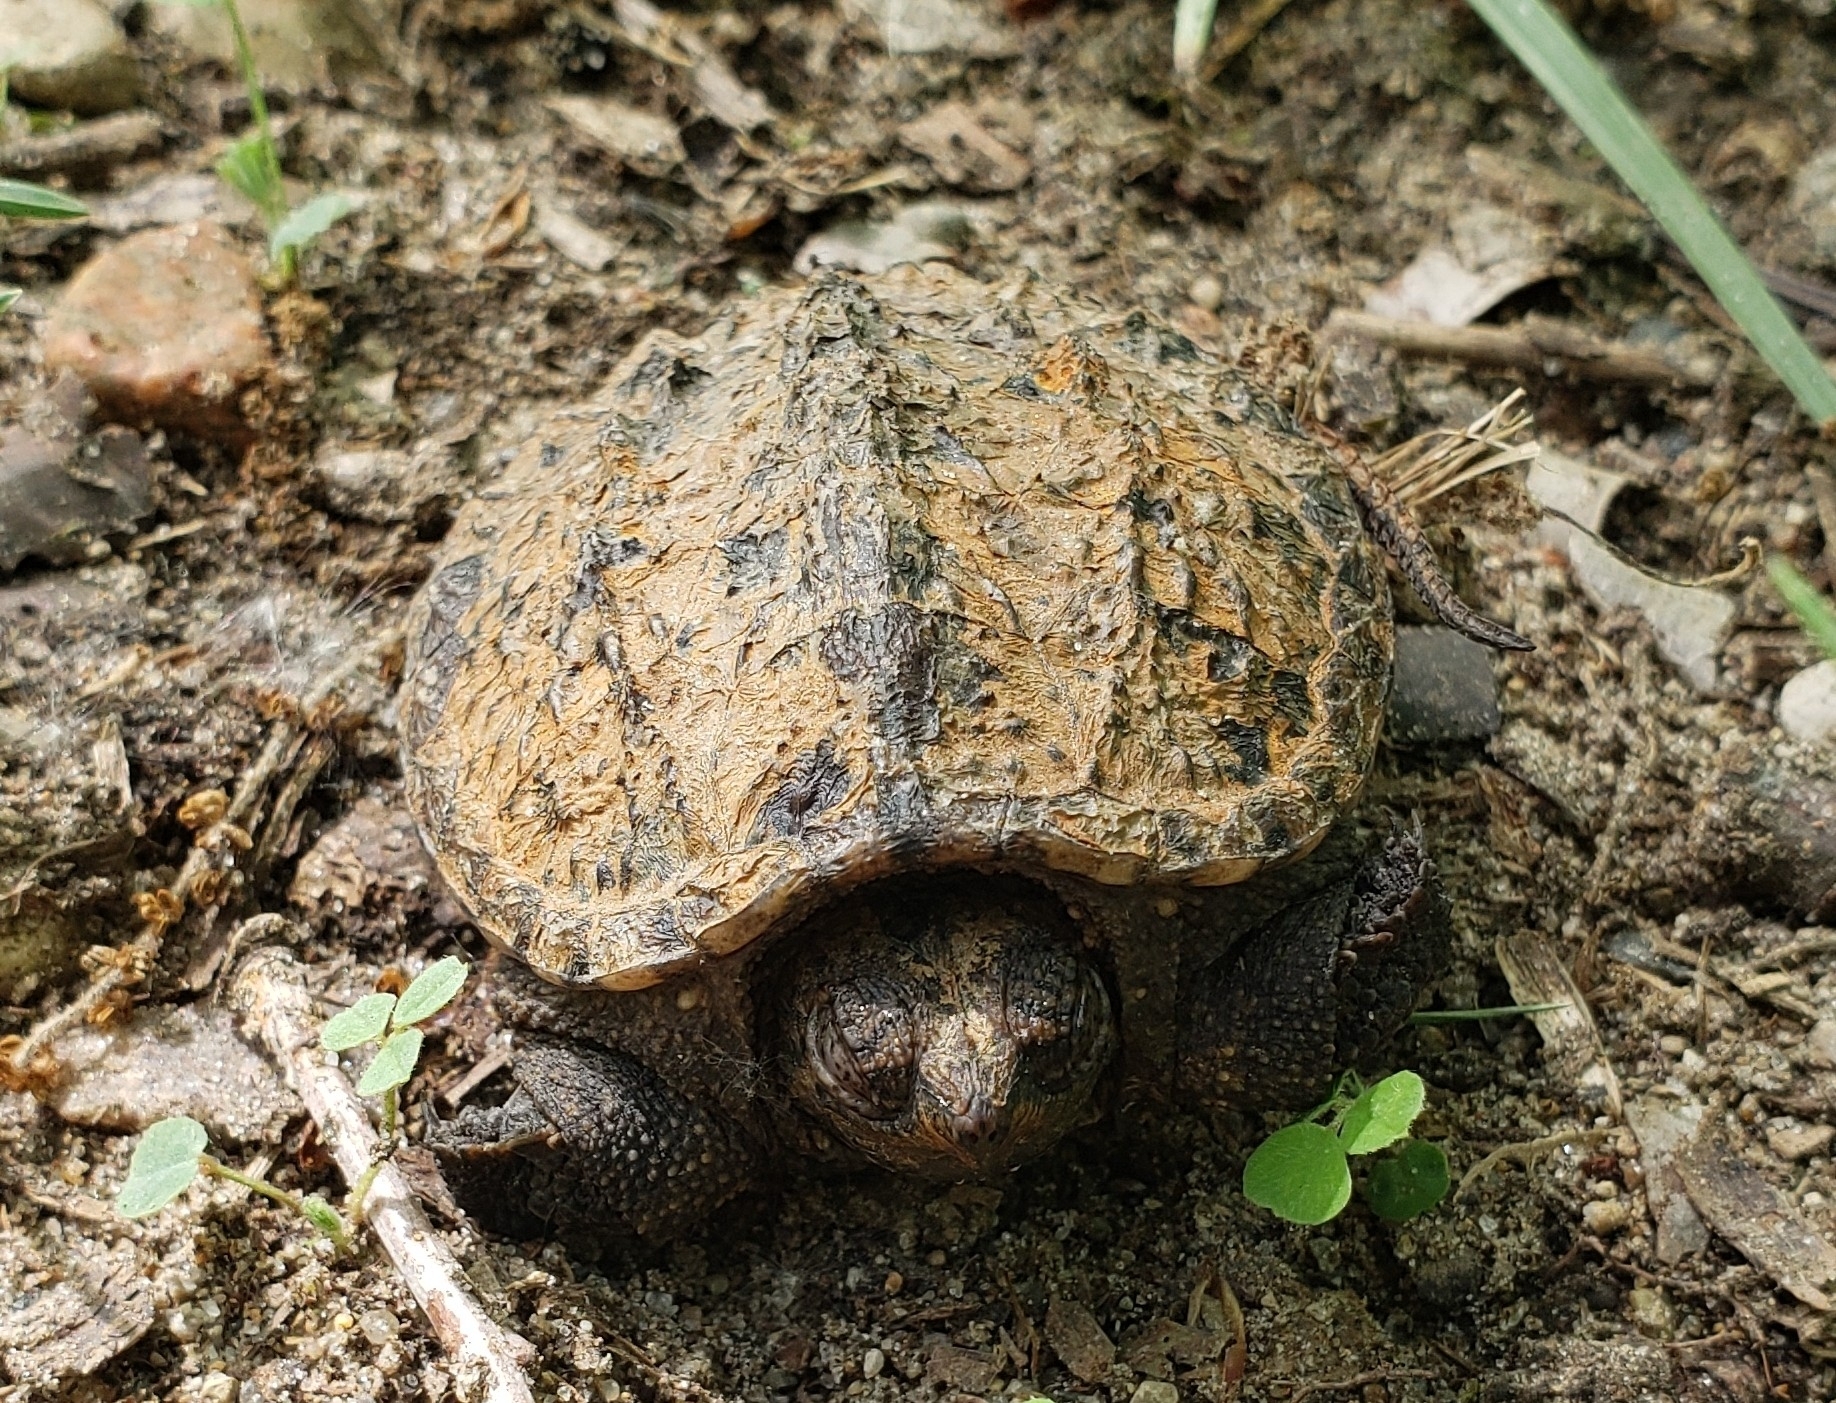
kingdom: Animalia
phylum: Chordata
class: Testudines
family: Chelydridae
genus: Chelydra
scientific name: Chelydra serpentina
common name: Common snapping turtle
